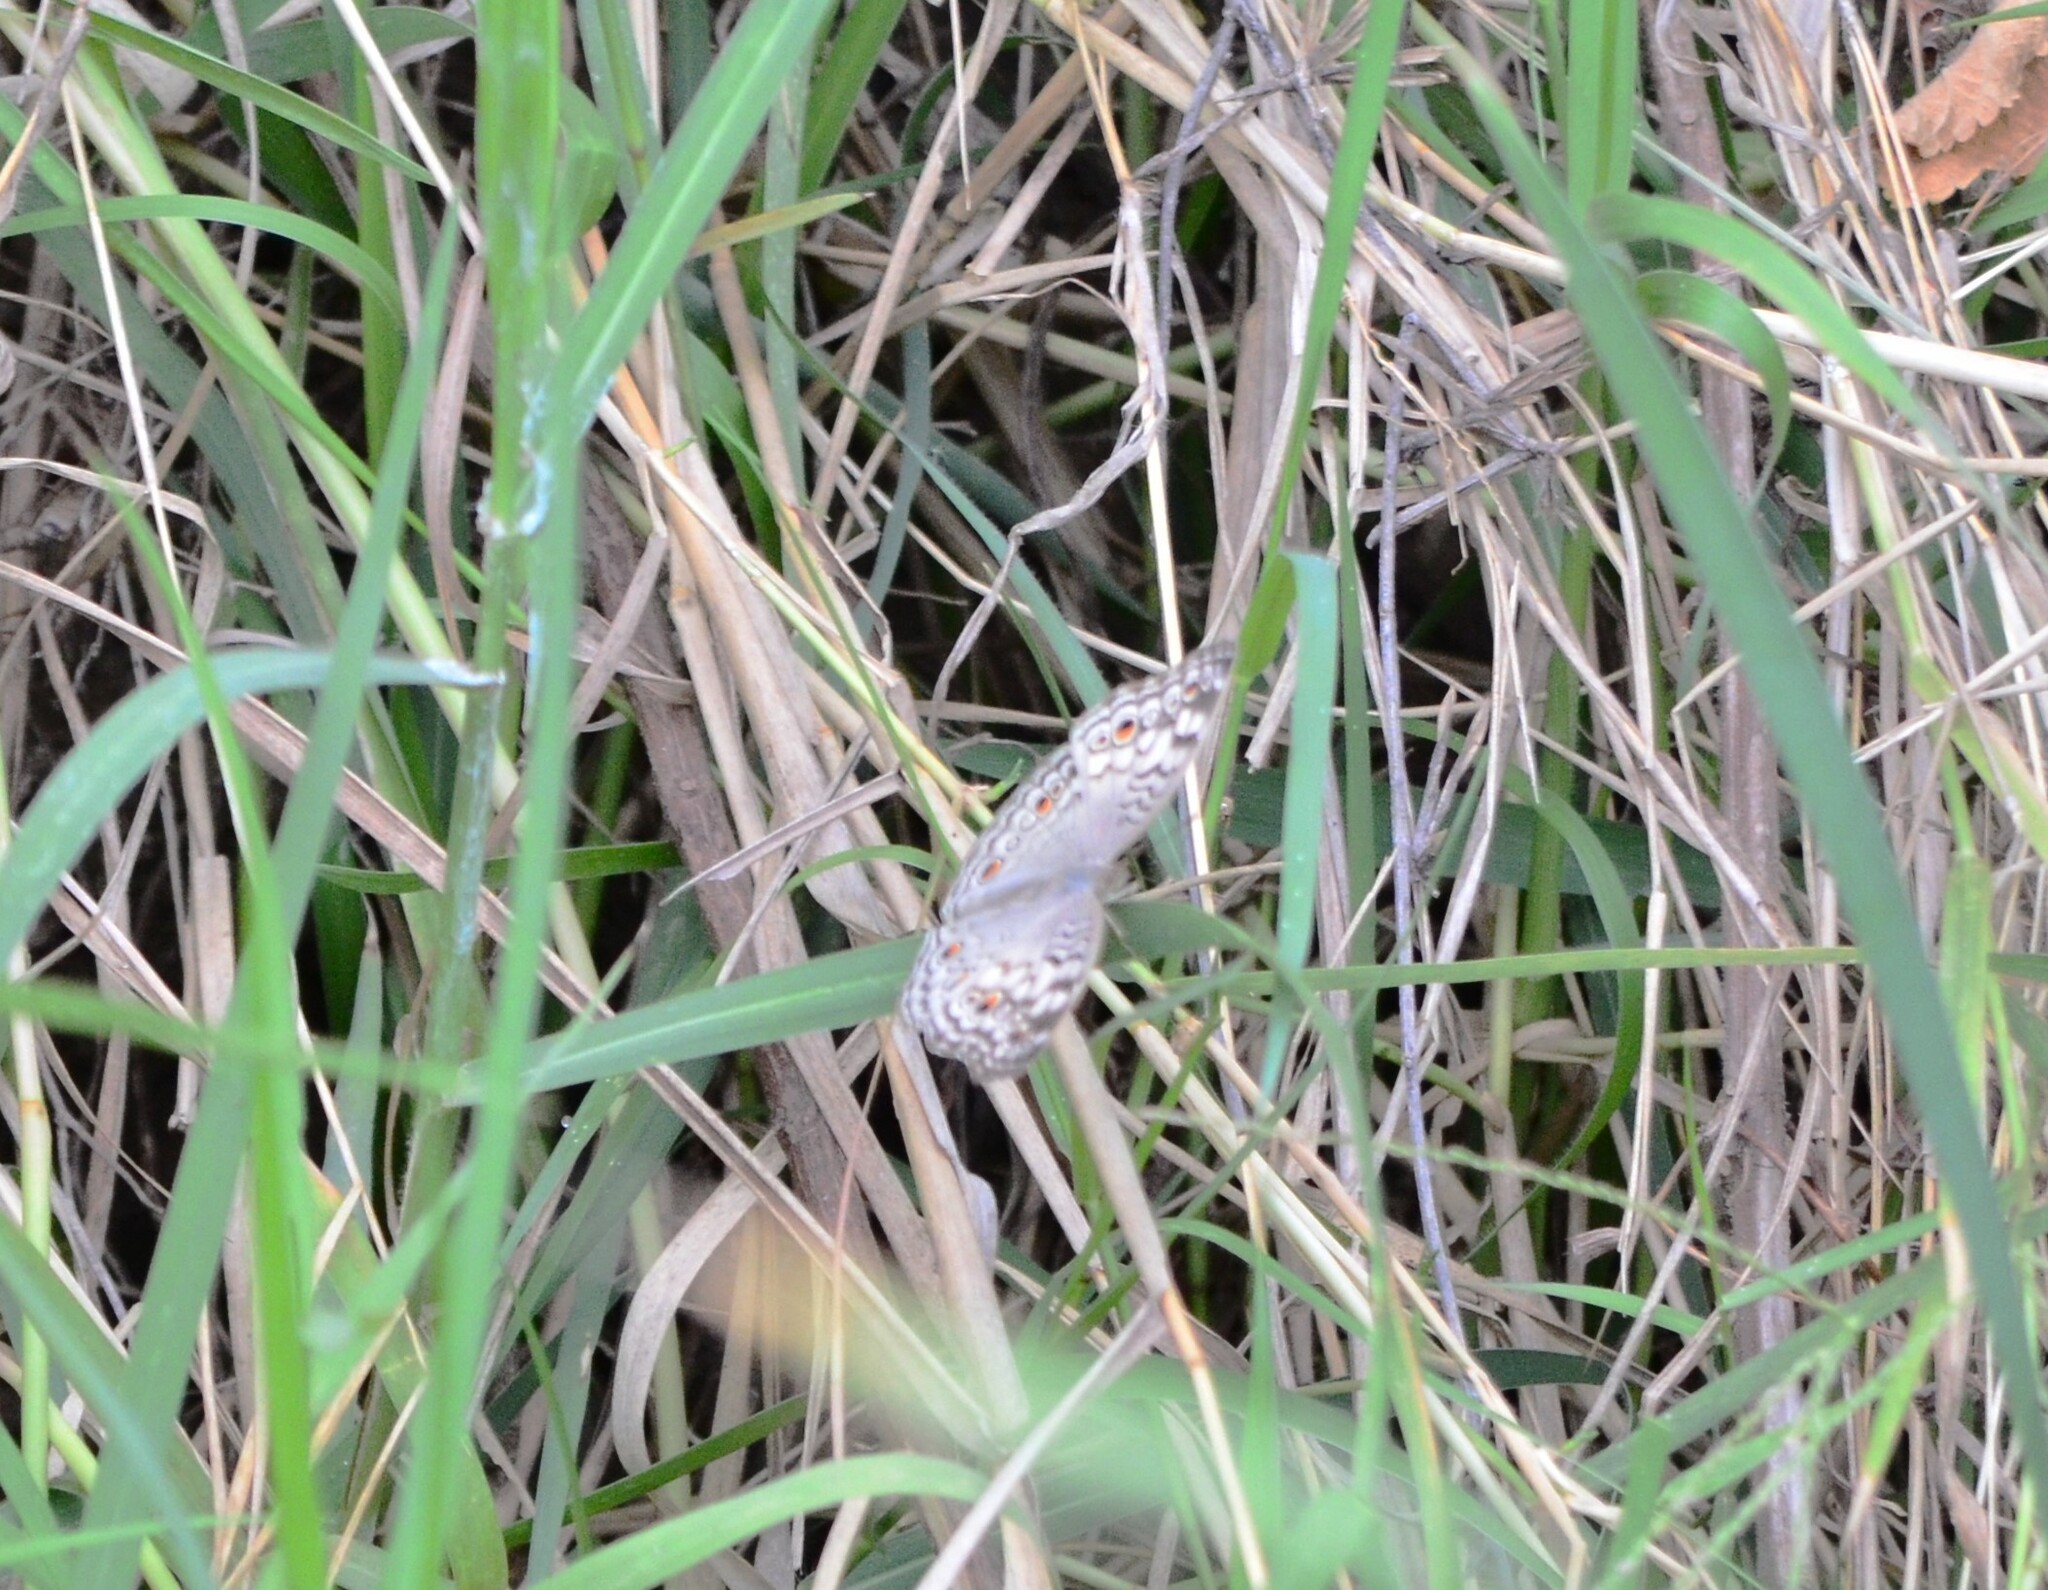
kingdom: Animalia
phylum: Arthropoda
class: Insecta
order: Lepidoptera
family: Nymphalidae
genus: Junonia
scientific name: Junonia atlites
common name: Grey pansy
